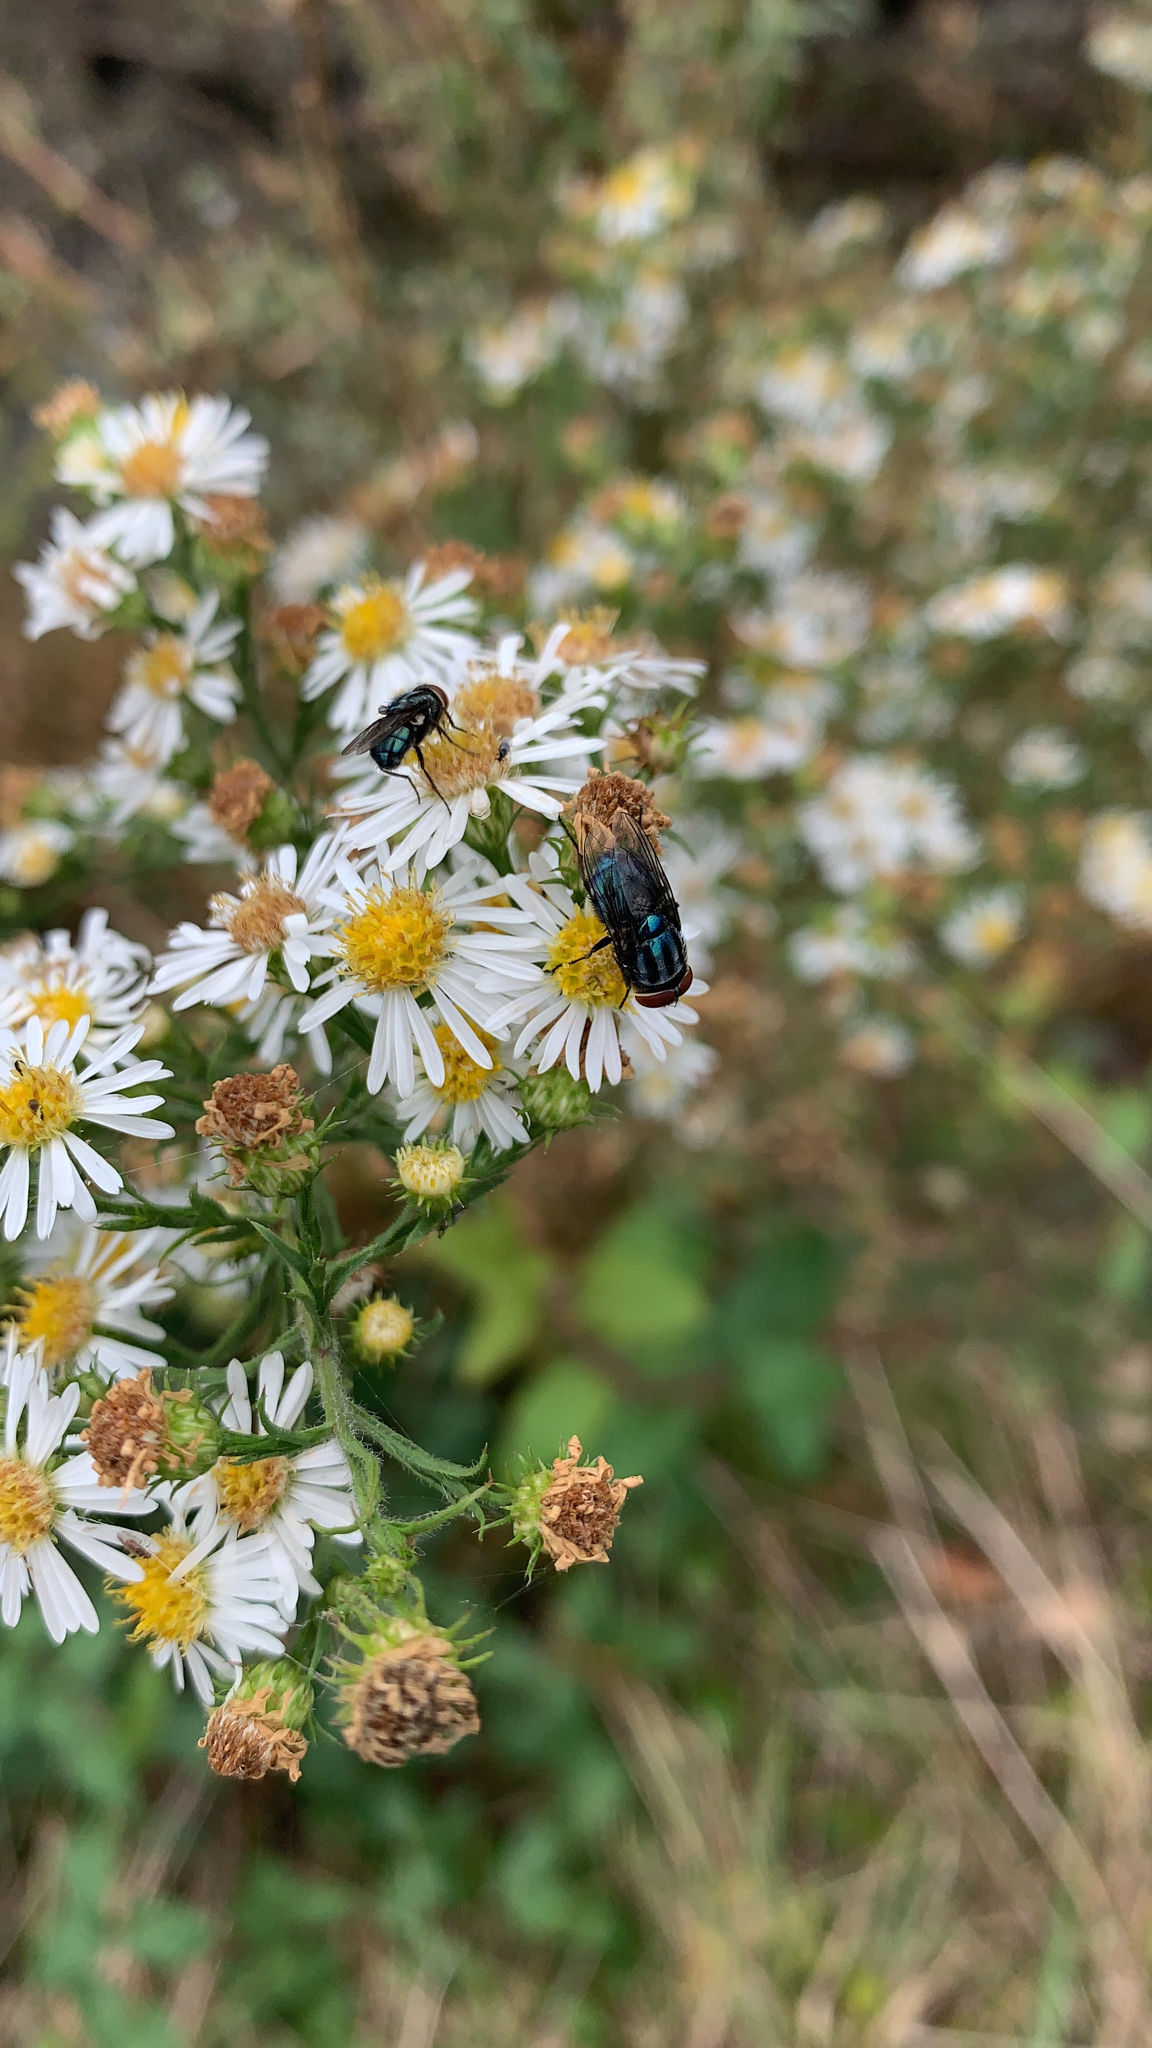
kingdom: Animalia
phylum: Arthropoda
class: Insecta
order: Diptera
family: Calliphoridae
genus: Cochliomyia
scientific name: Cochliomyia macellaria
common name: Secondary screwworm
